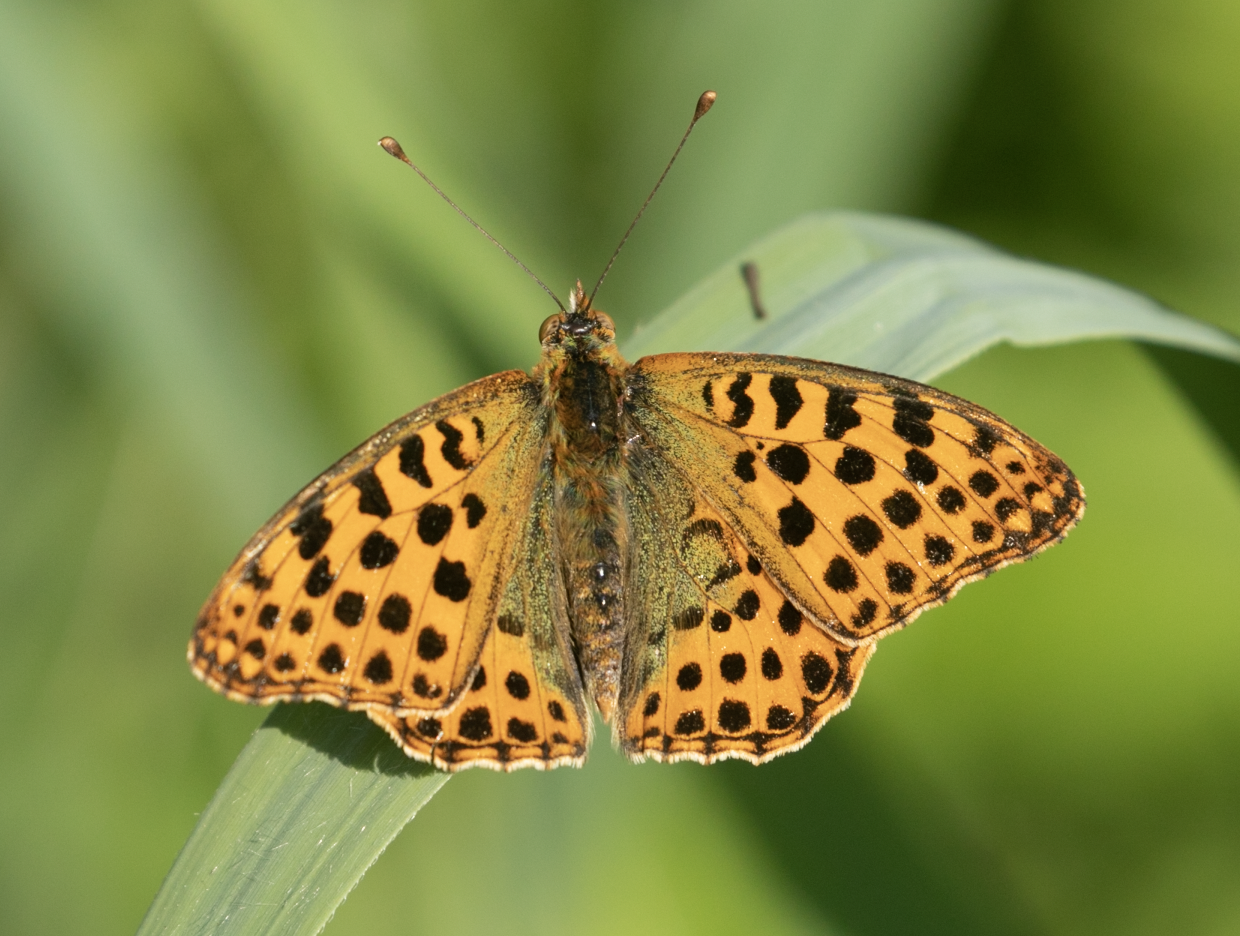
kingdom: Animalia
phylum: Arthropoda
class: Insecta
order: Lepidoptera
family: Nymphalidae
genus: Issoria
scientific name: Issoria lathonia
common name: Queen of spain fritillary
